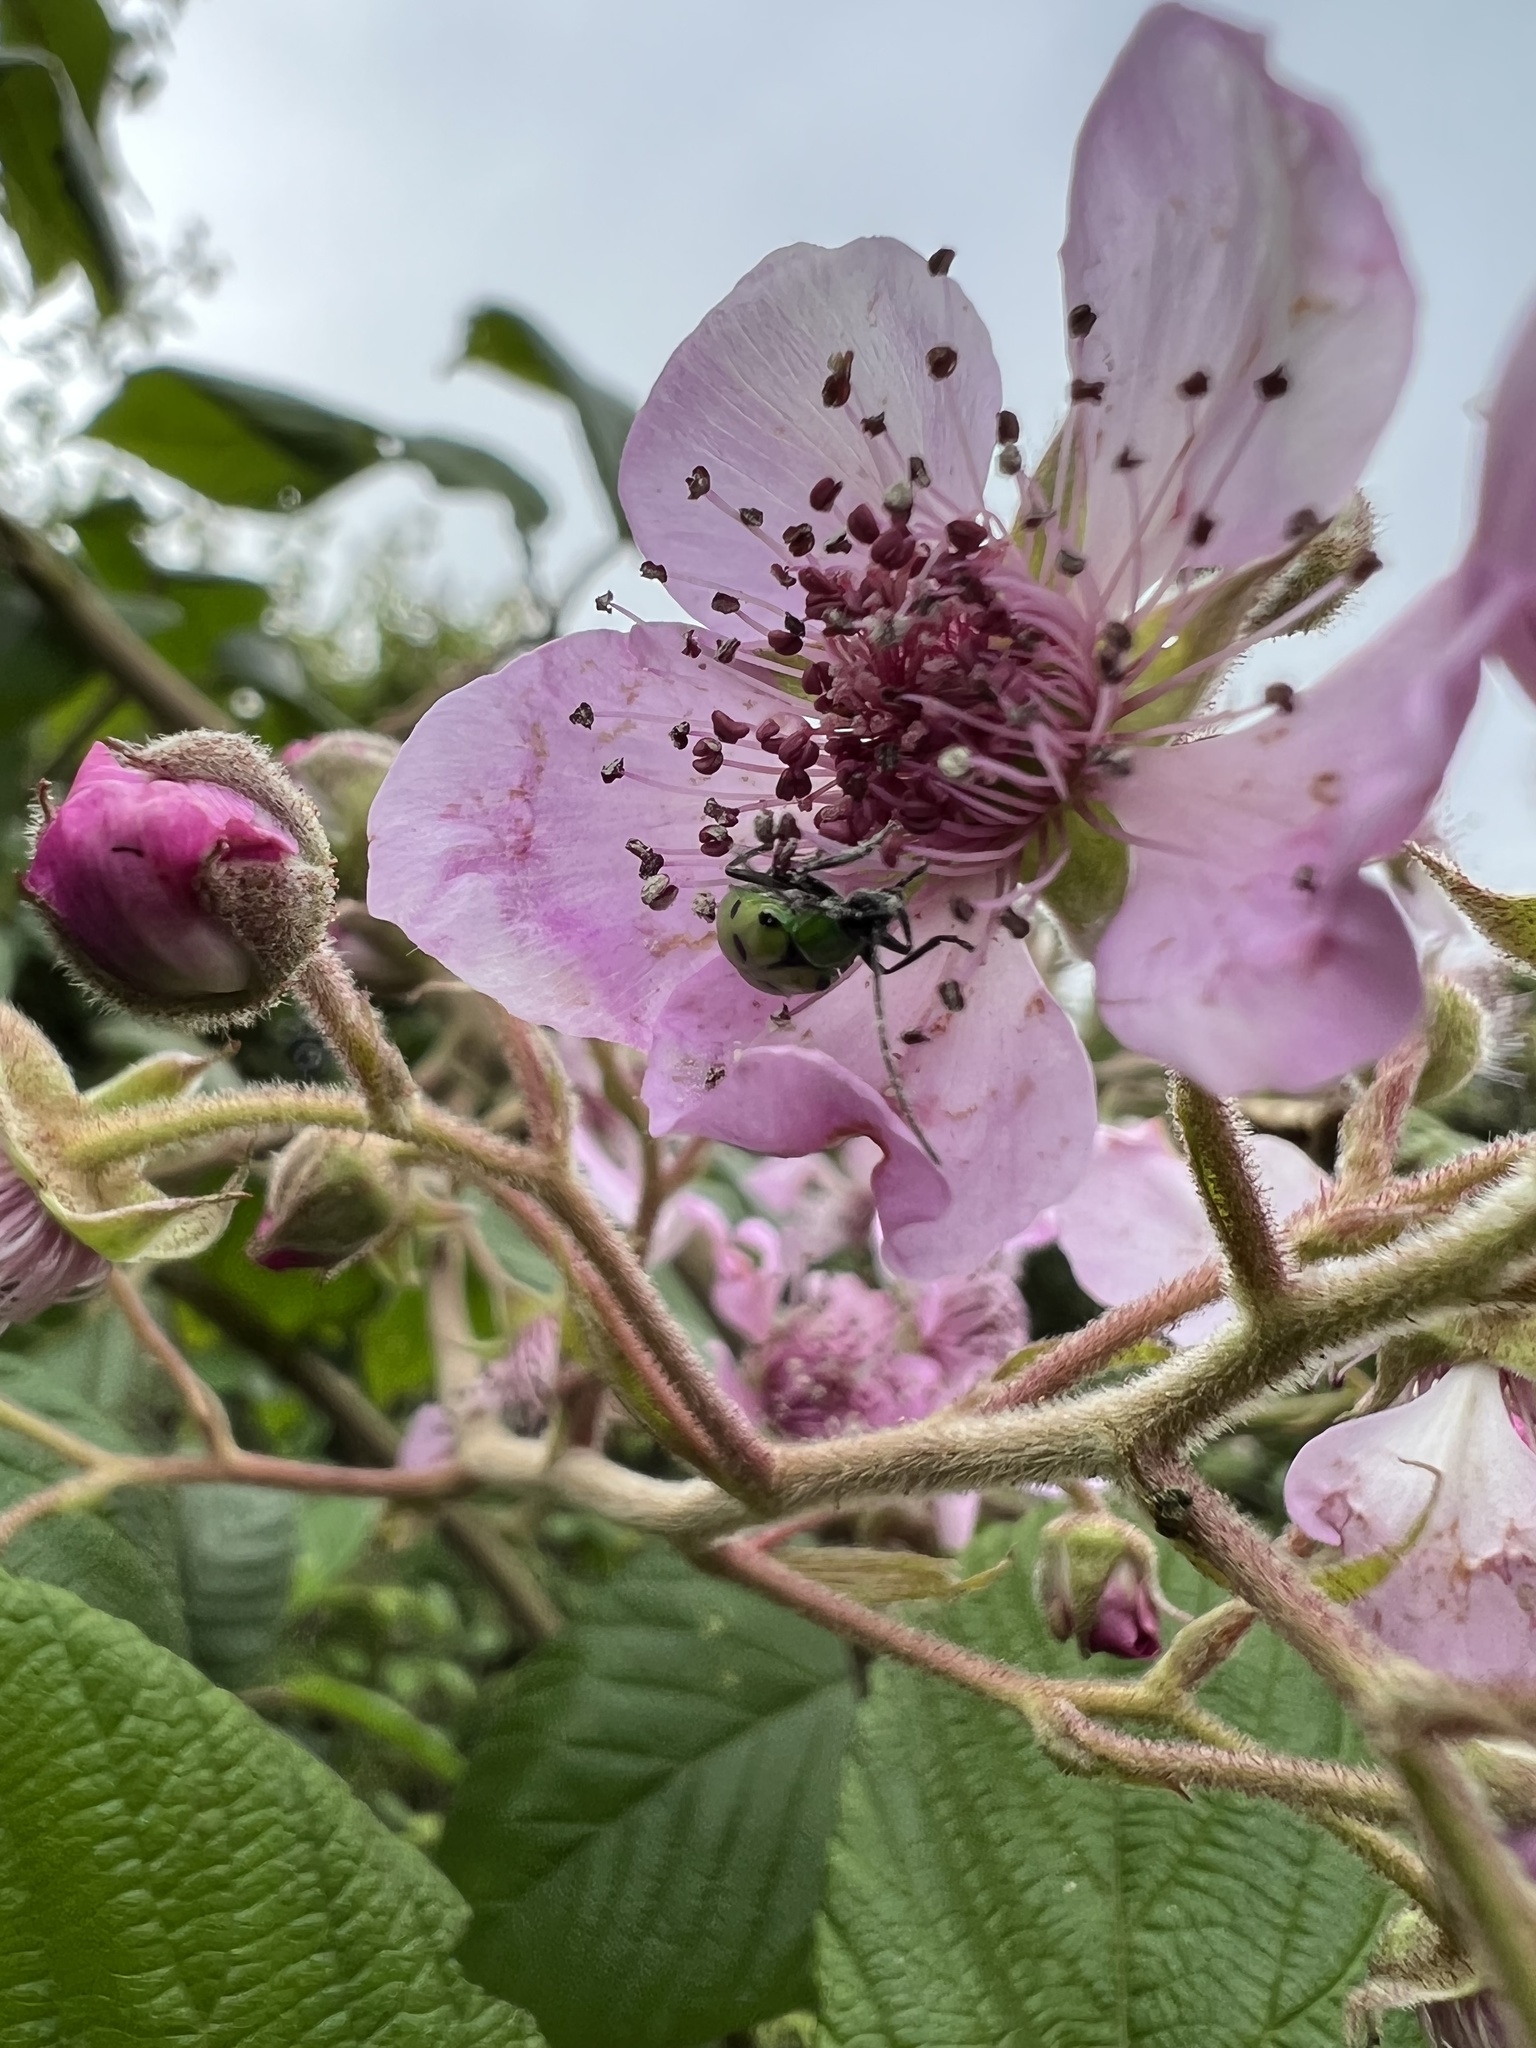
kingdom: Animalia
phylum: Arthropoda
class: Insecta
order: Coleoptera
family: Chrysomelidae
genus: Diabrotica
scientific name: Diabrotica decempunctata
